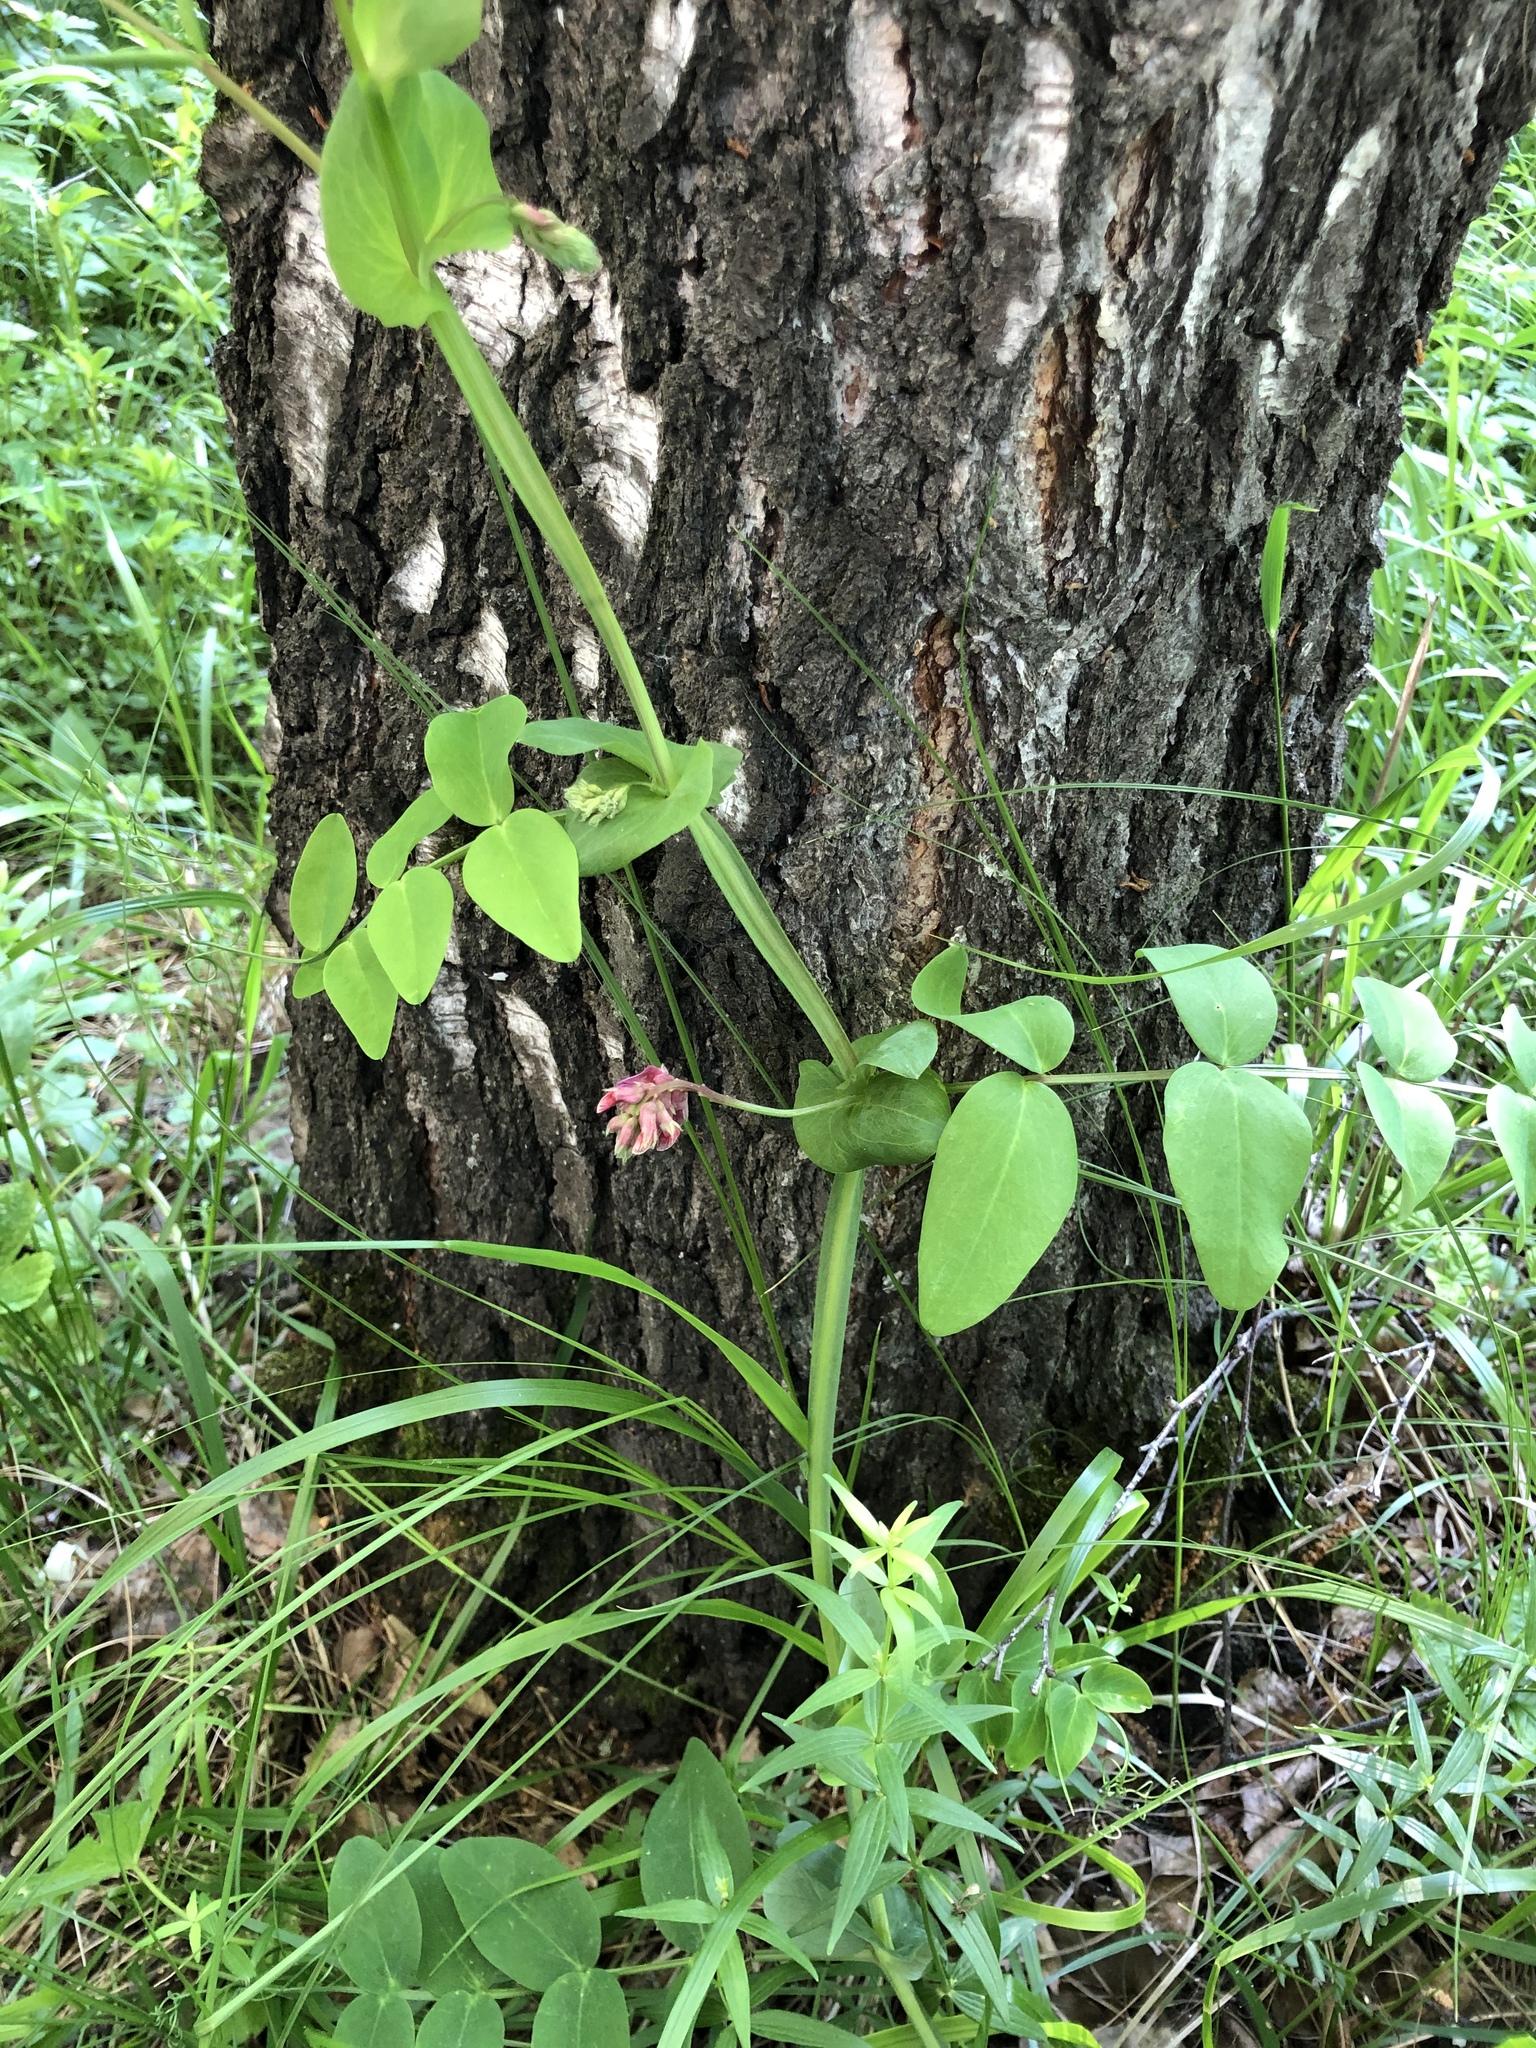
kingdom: Plantae
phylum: Tracheophyta
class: Magnoliopsida
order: Fabales
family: Fabaceae
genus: Lathyrus
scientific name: Lathyrus pisiformis
